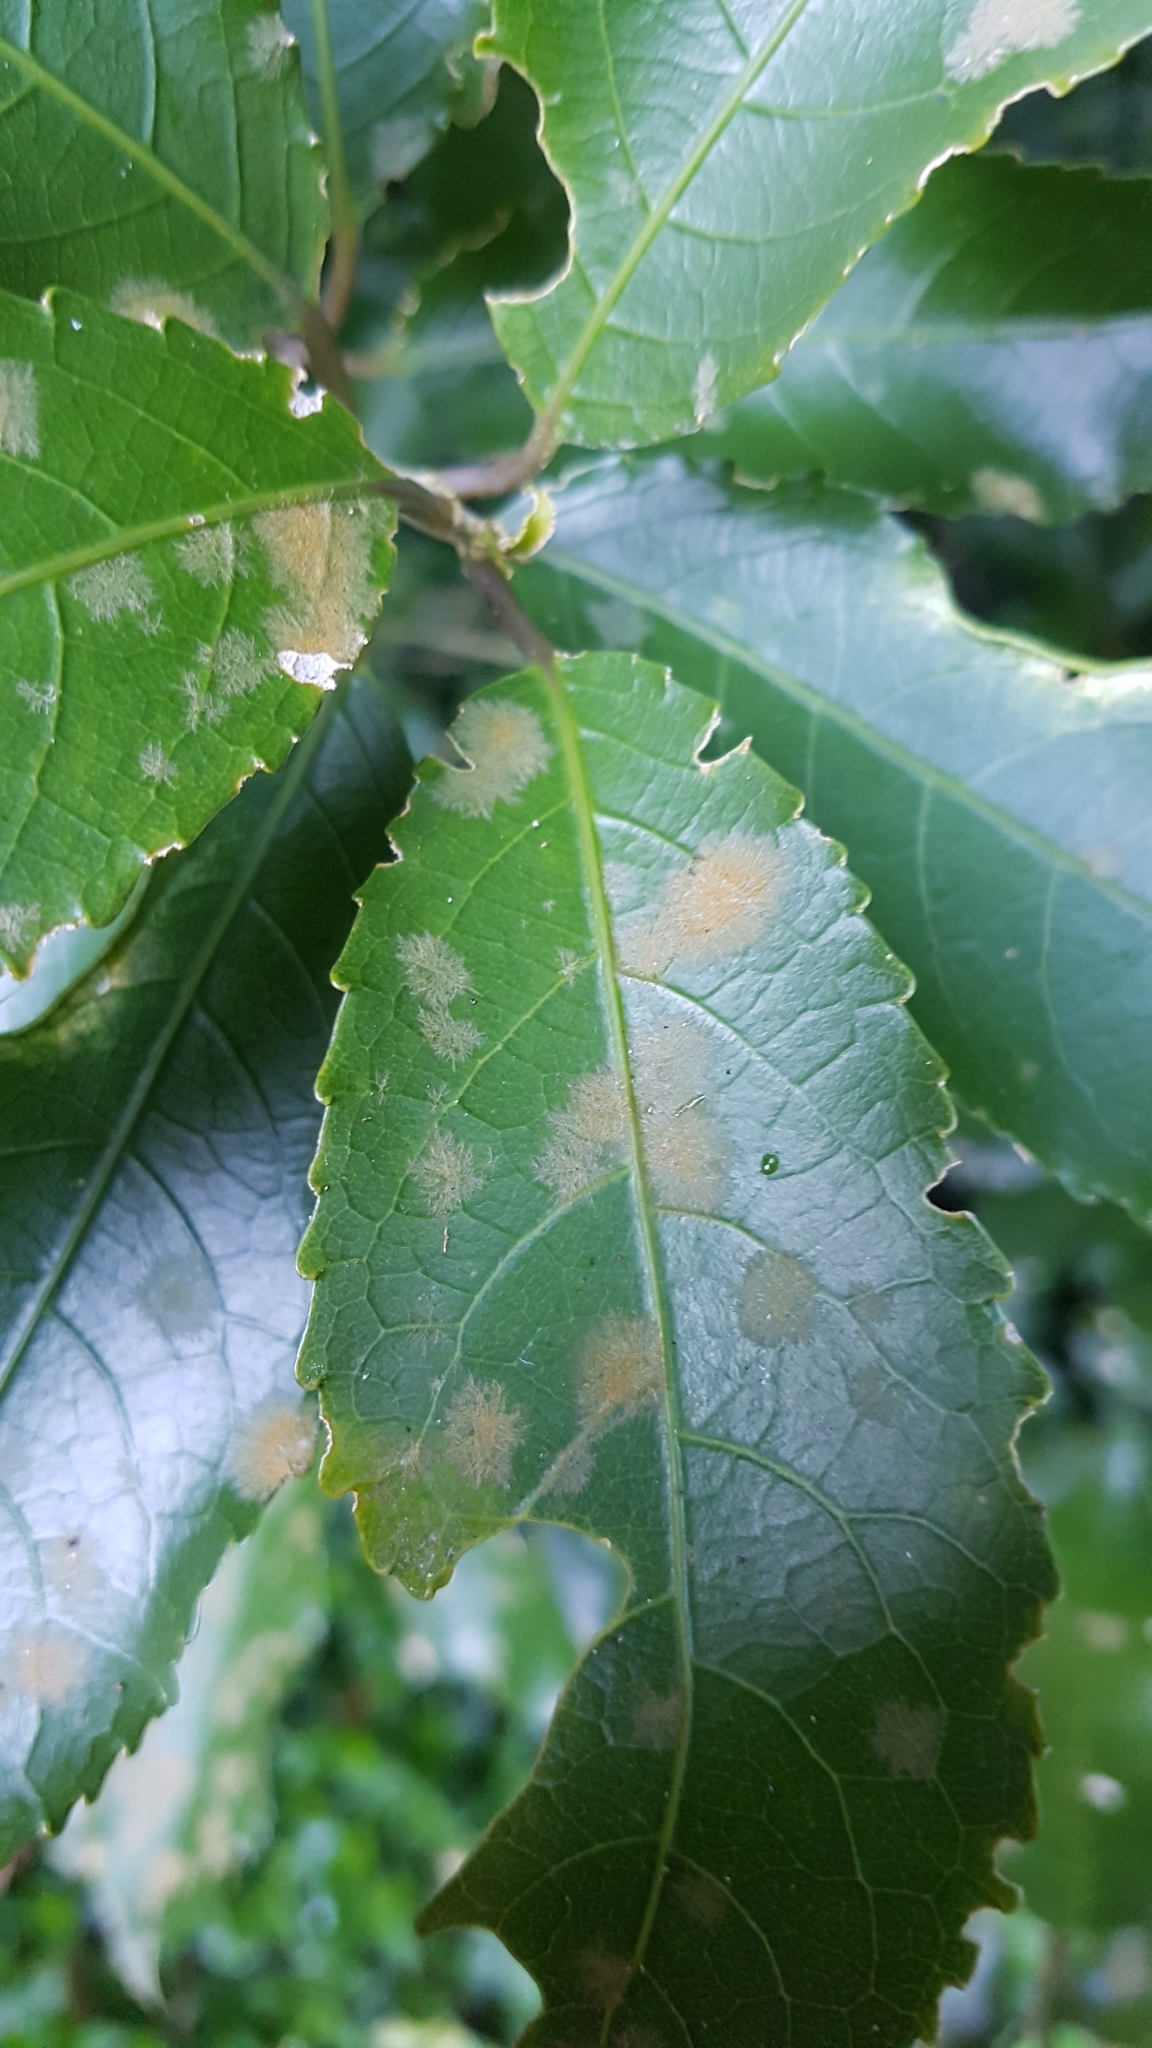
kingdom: Plantae
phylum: Chlorophyta
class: Ulvophyceae
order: Trentepohliales
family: Trentepohliaceae
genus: Cephaleuros
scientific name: Cephaleuros
